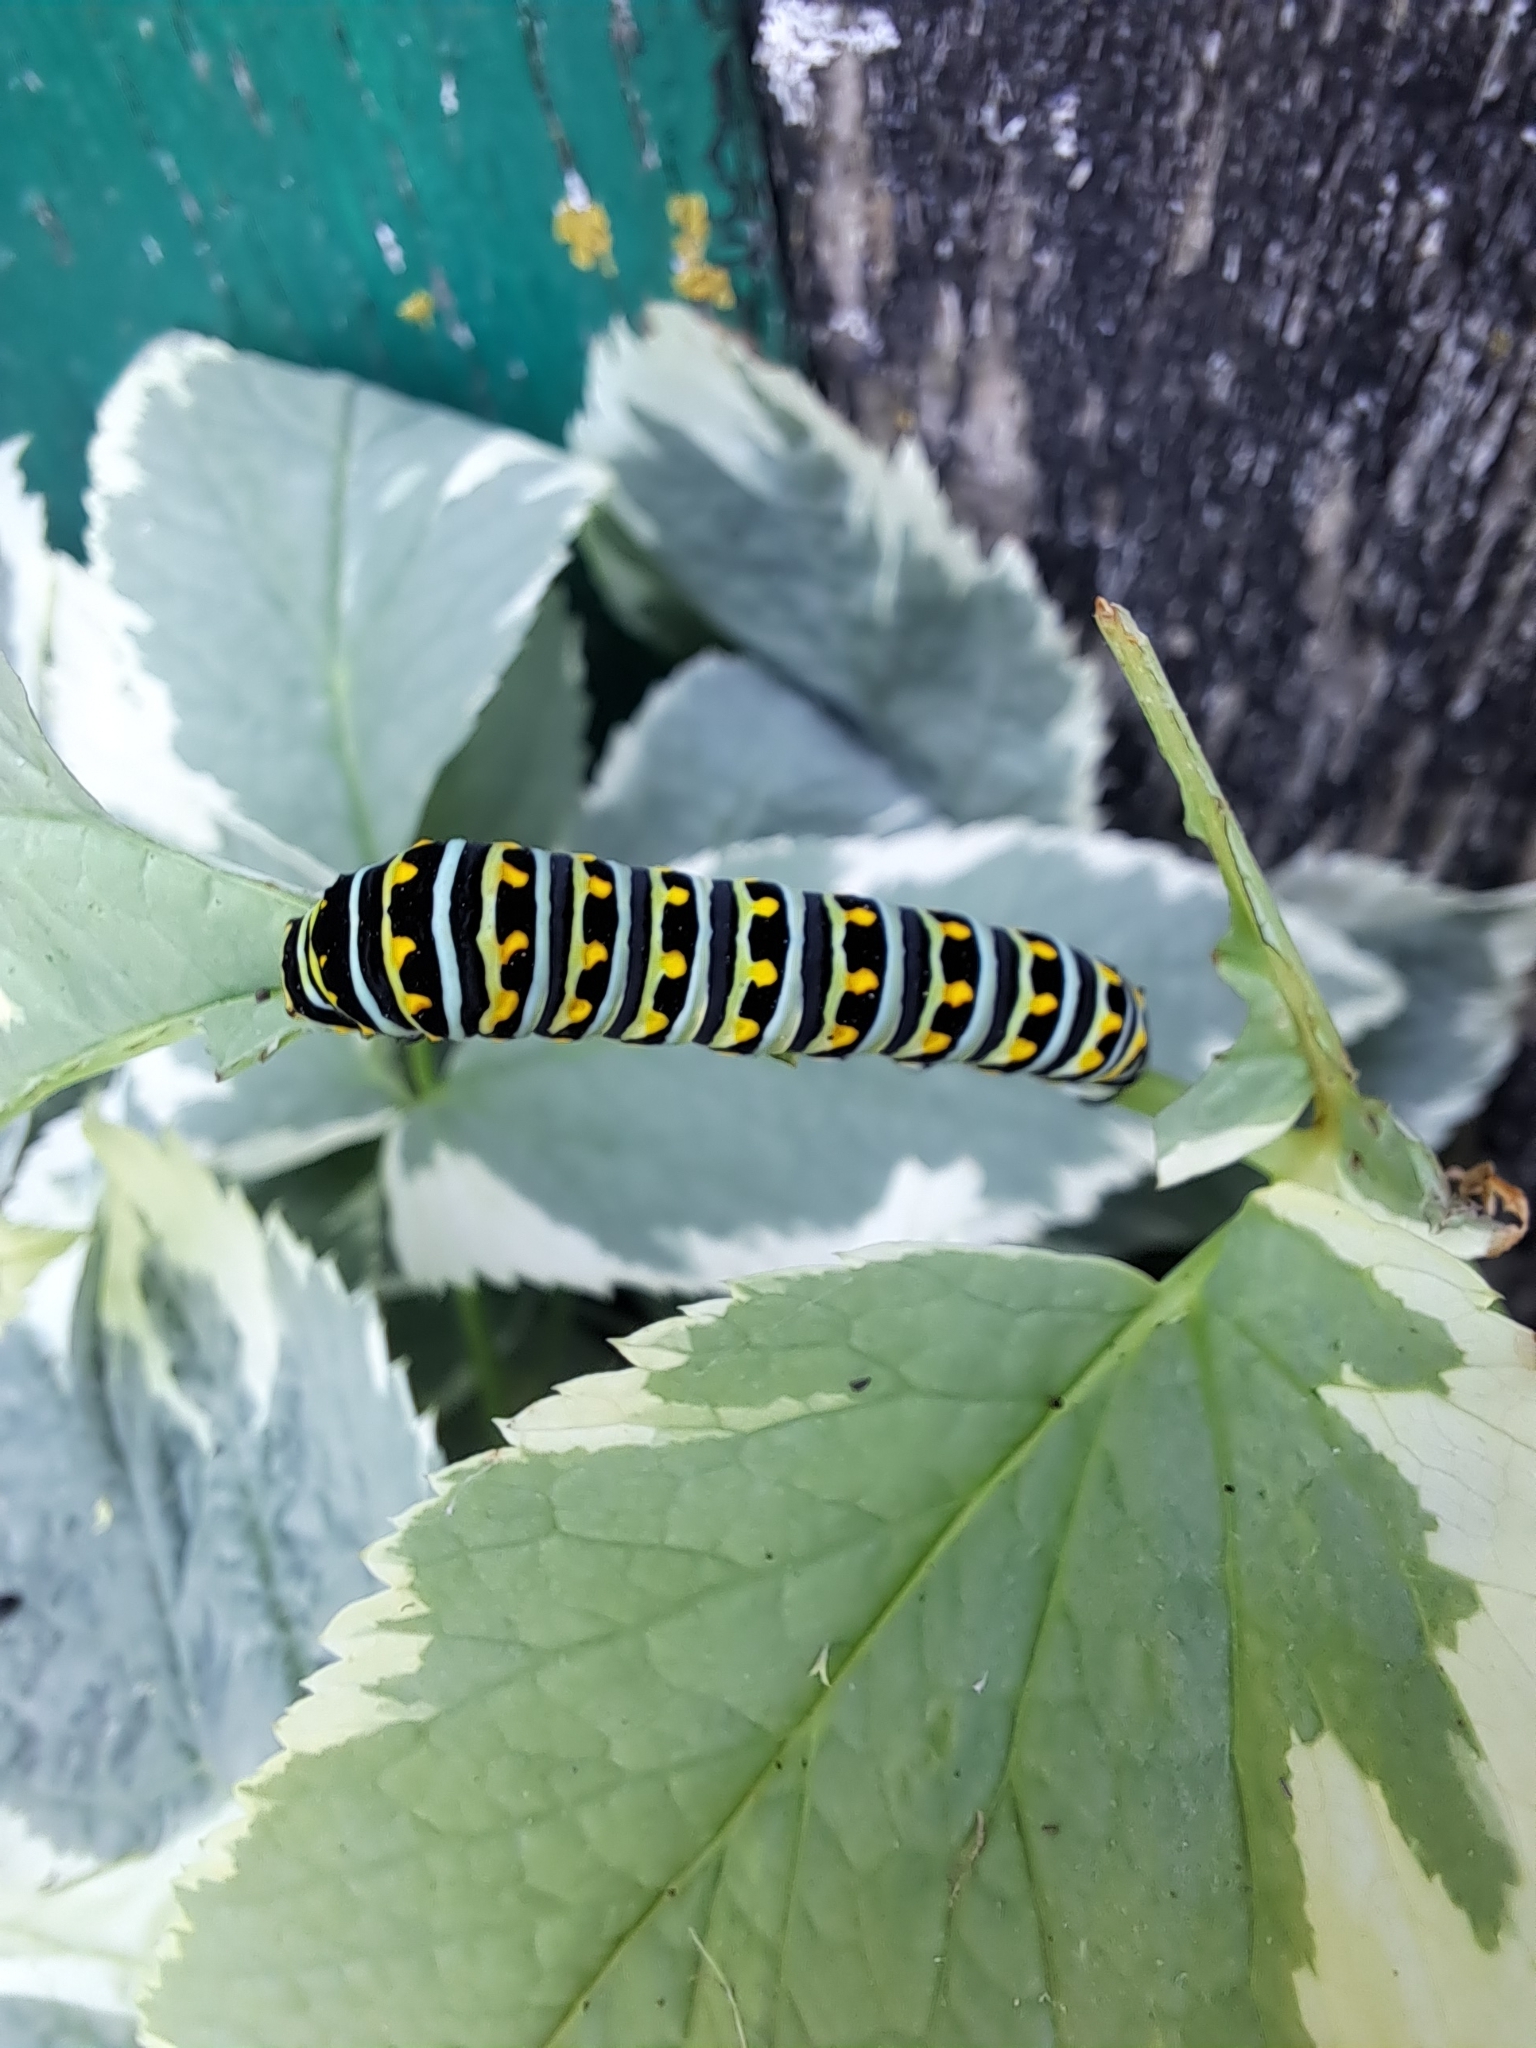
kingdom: Animalia
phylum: Arthropoda
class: Insecta
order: Lepidoptera
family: Papilionidae
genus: Papilio
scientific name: Papilio polyxenes
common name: Black swallowtail
